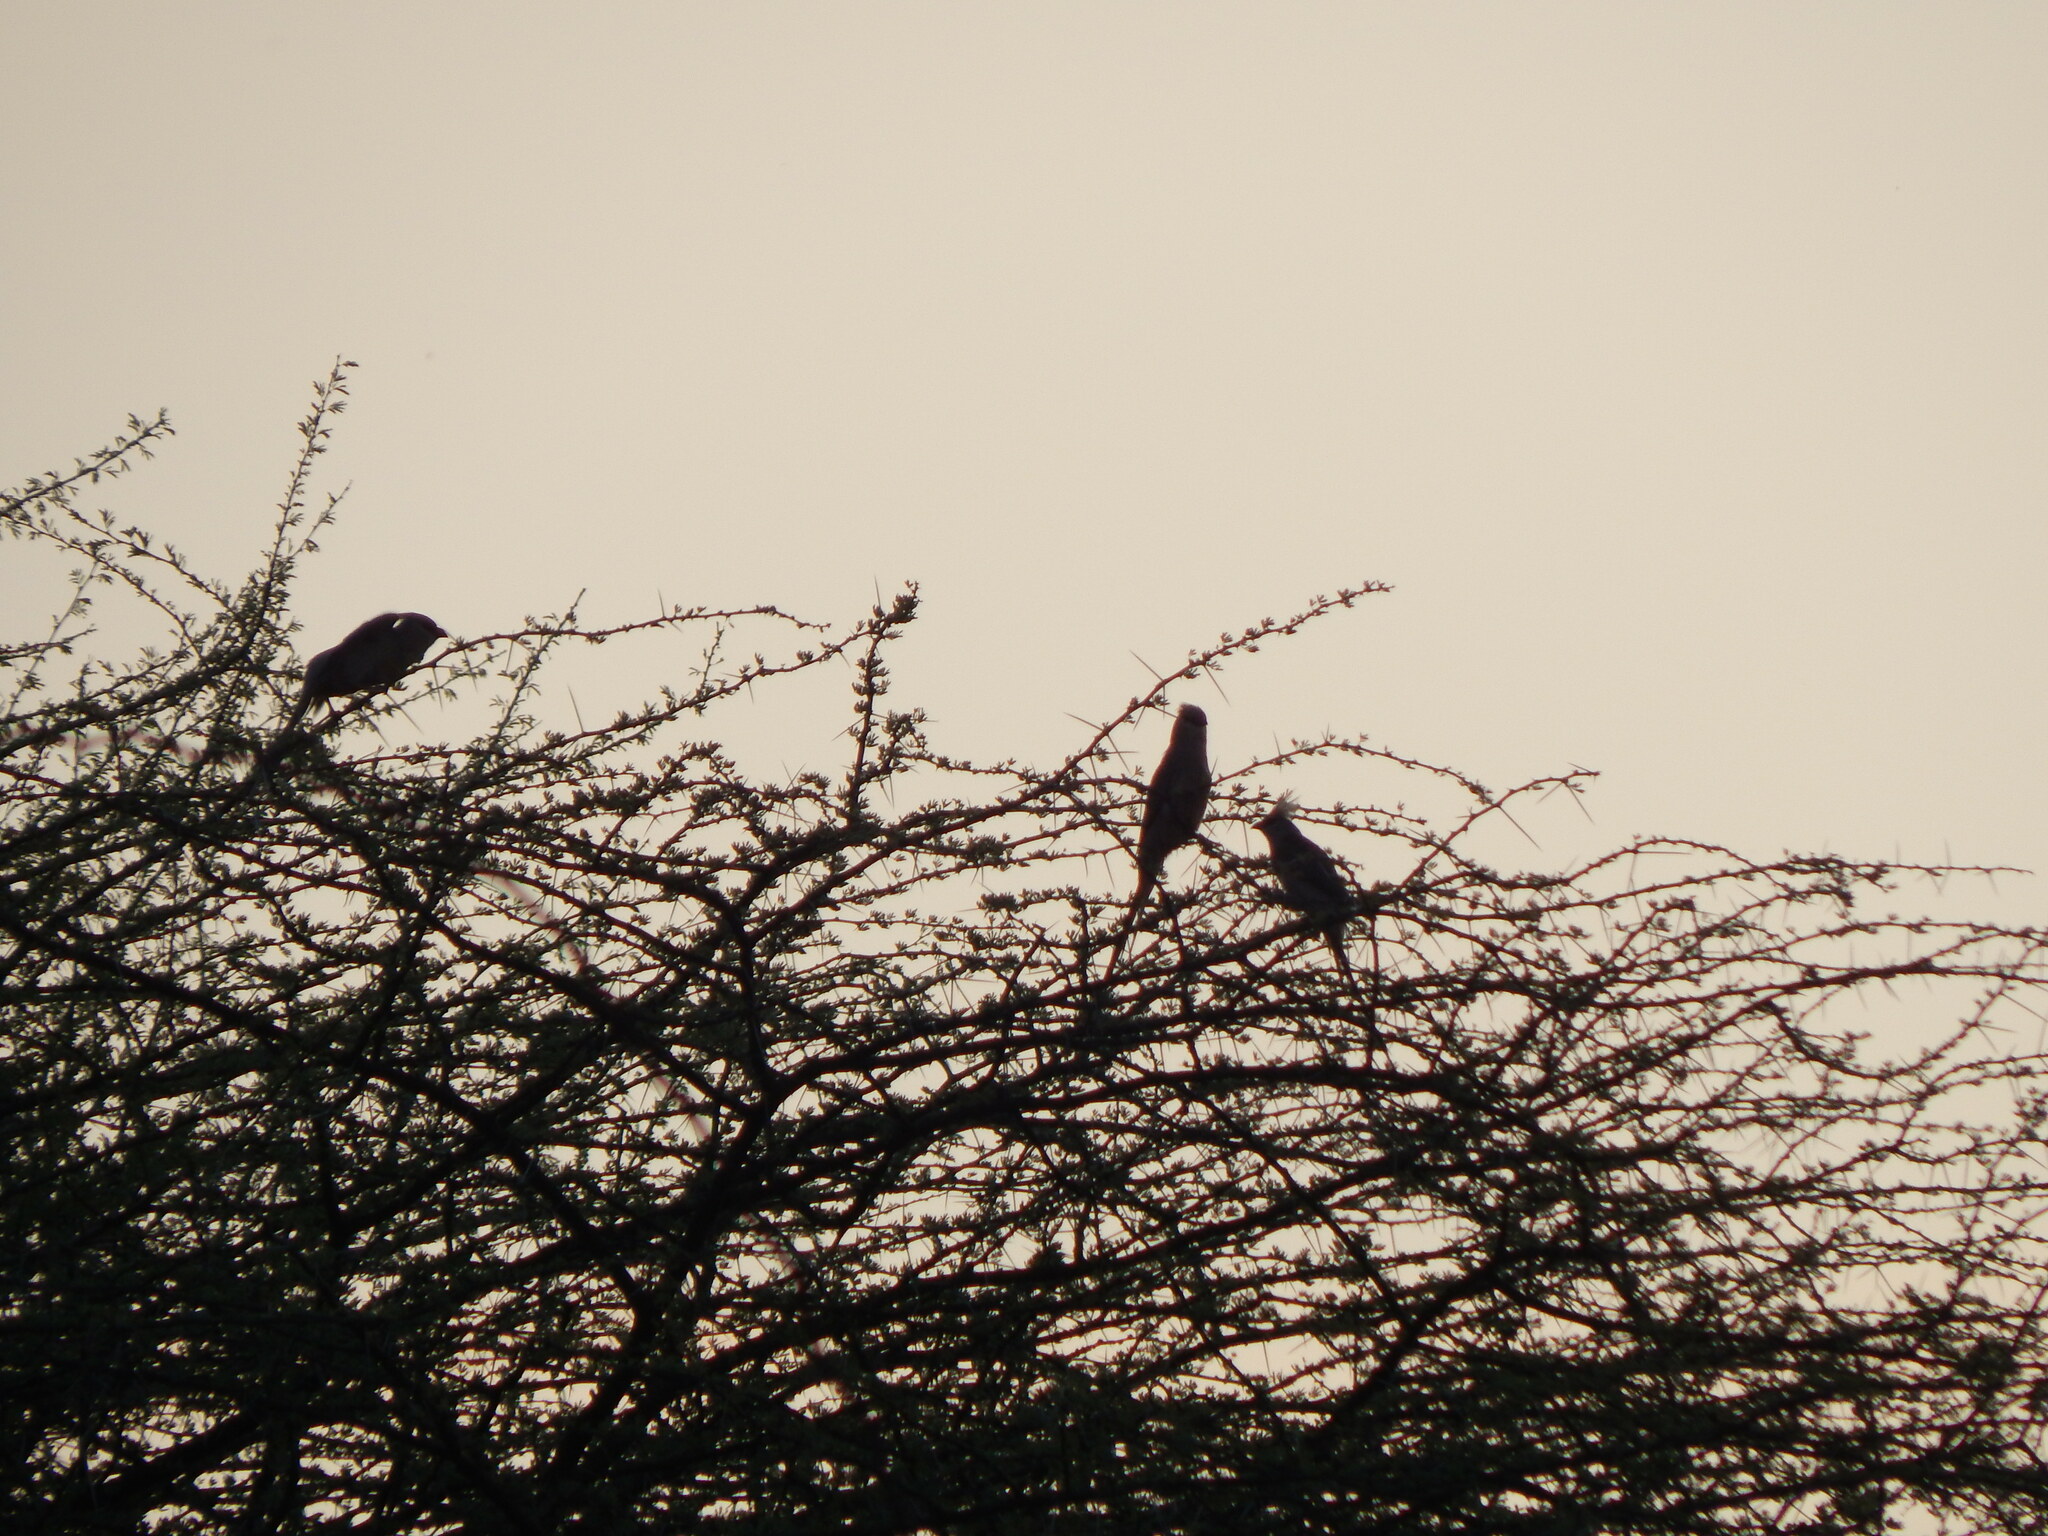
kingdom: Animalia
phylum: Chordata
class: Aves
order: Coliiformes
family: Coliidae
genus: Urocolius
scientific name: Urocolius macrourus
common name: Blue-naped mousebird
